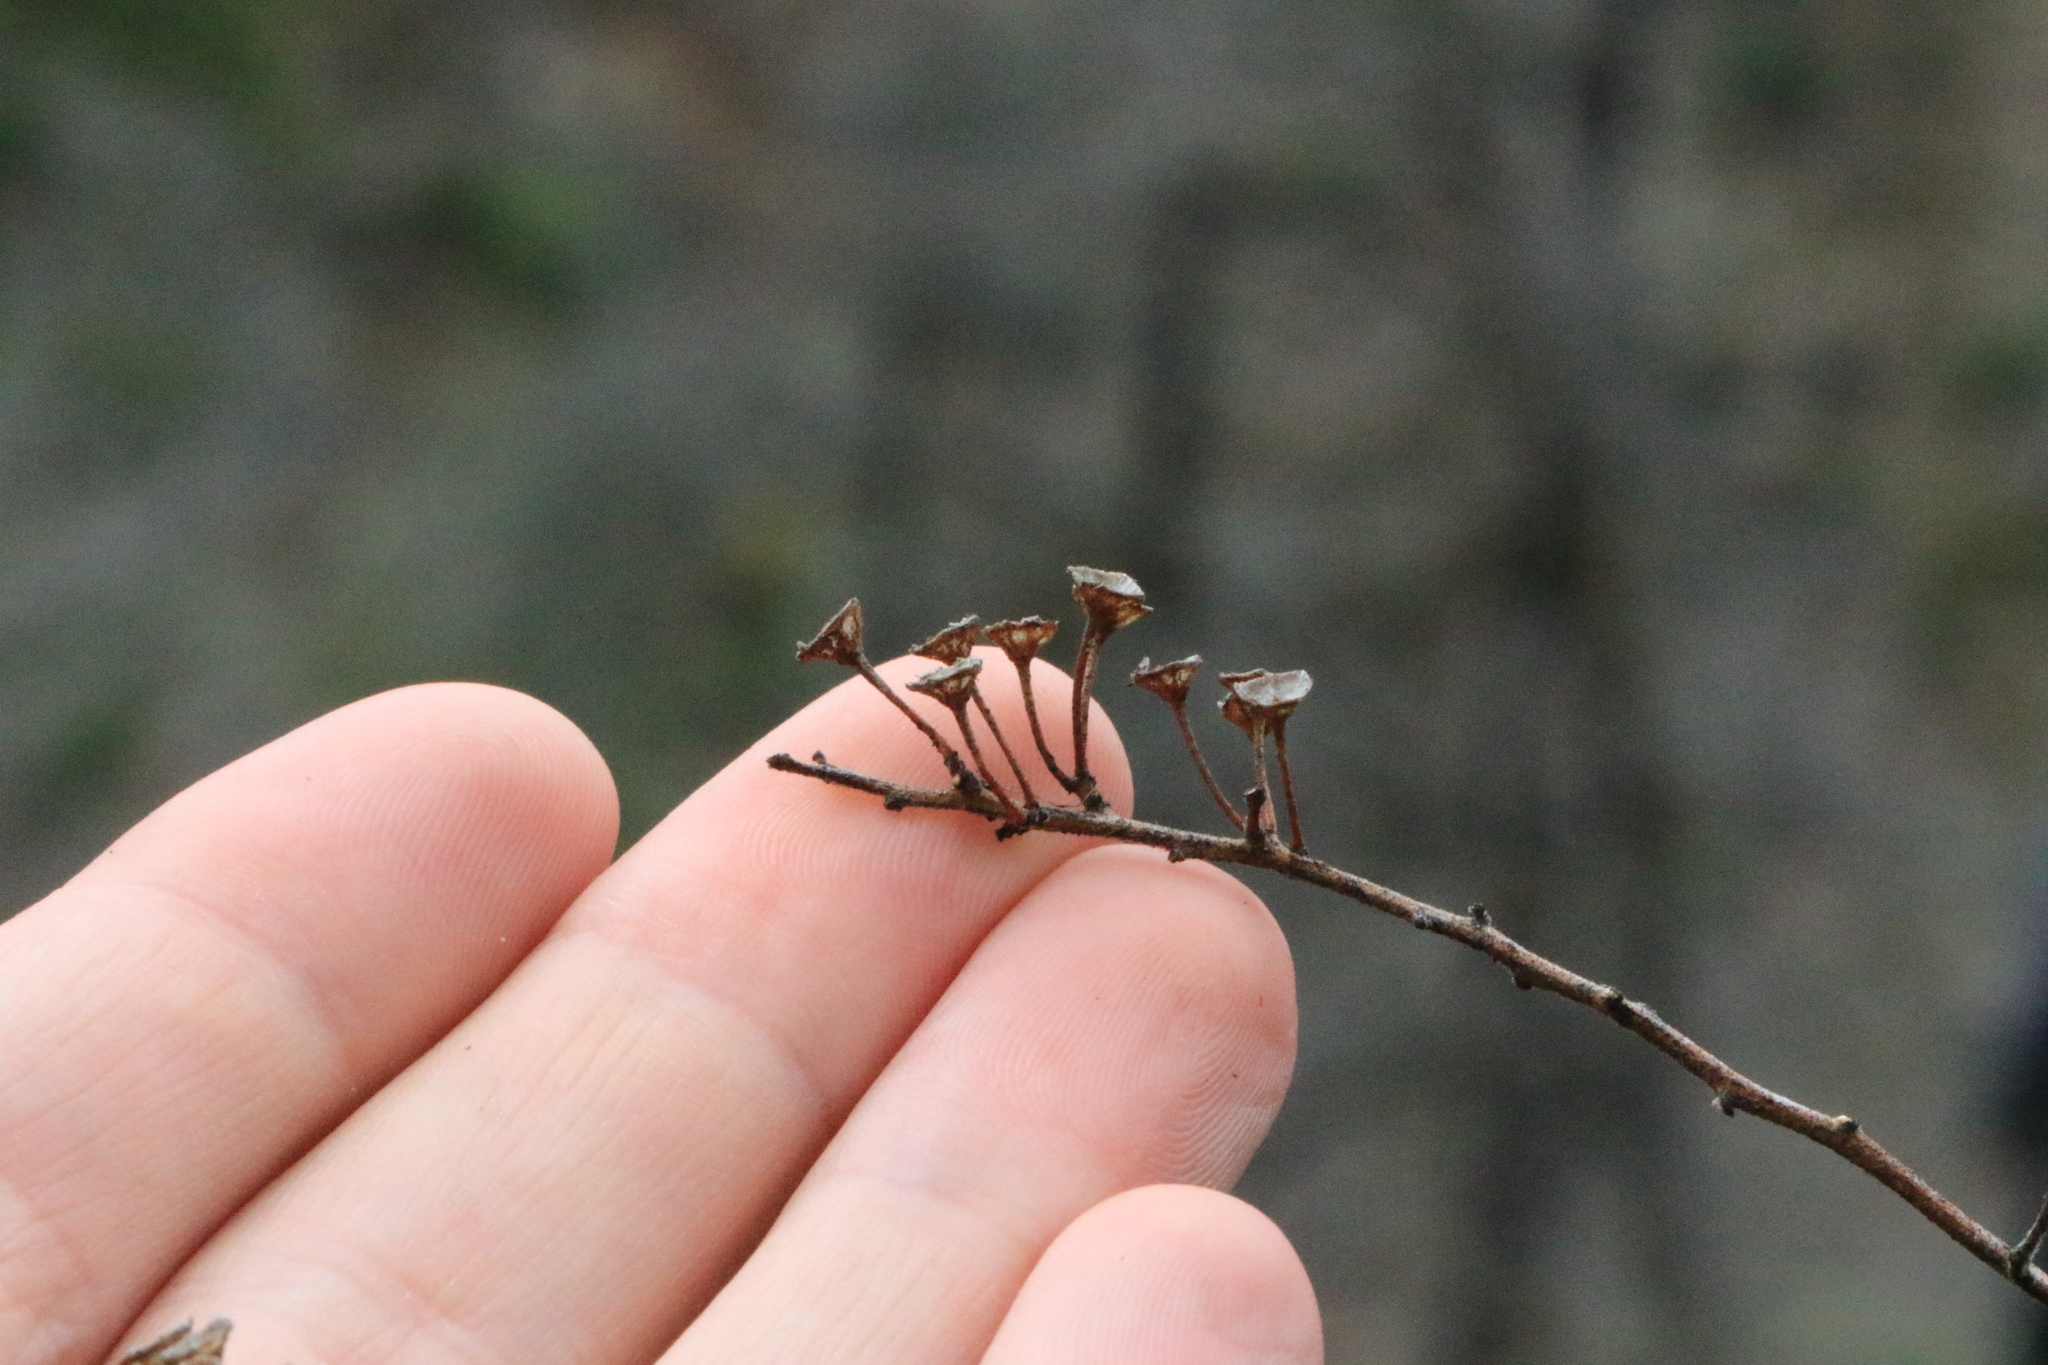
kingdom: Plantae
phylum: Tracheophyta
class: Magnoliopsida
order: Rosales
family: Rhamnaceae
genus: Ceanothus
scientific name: Ceanothus integerrimus
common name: Deerbrush ceanothus
